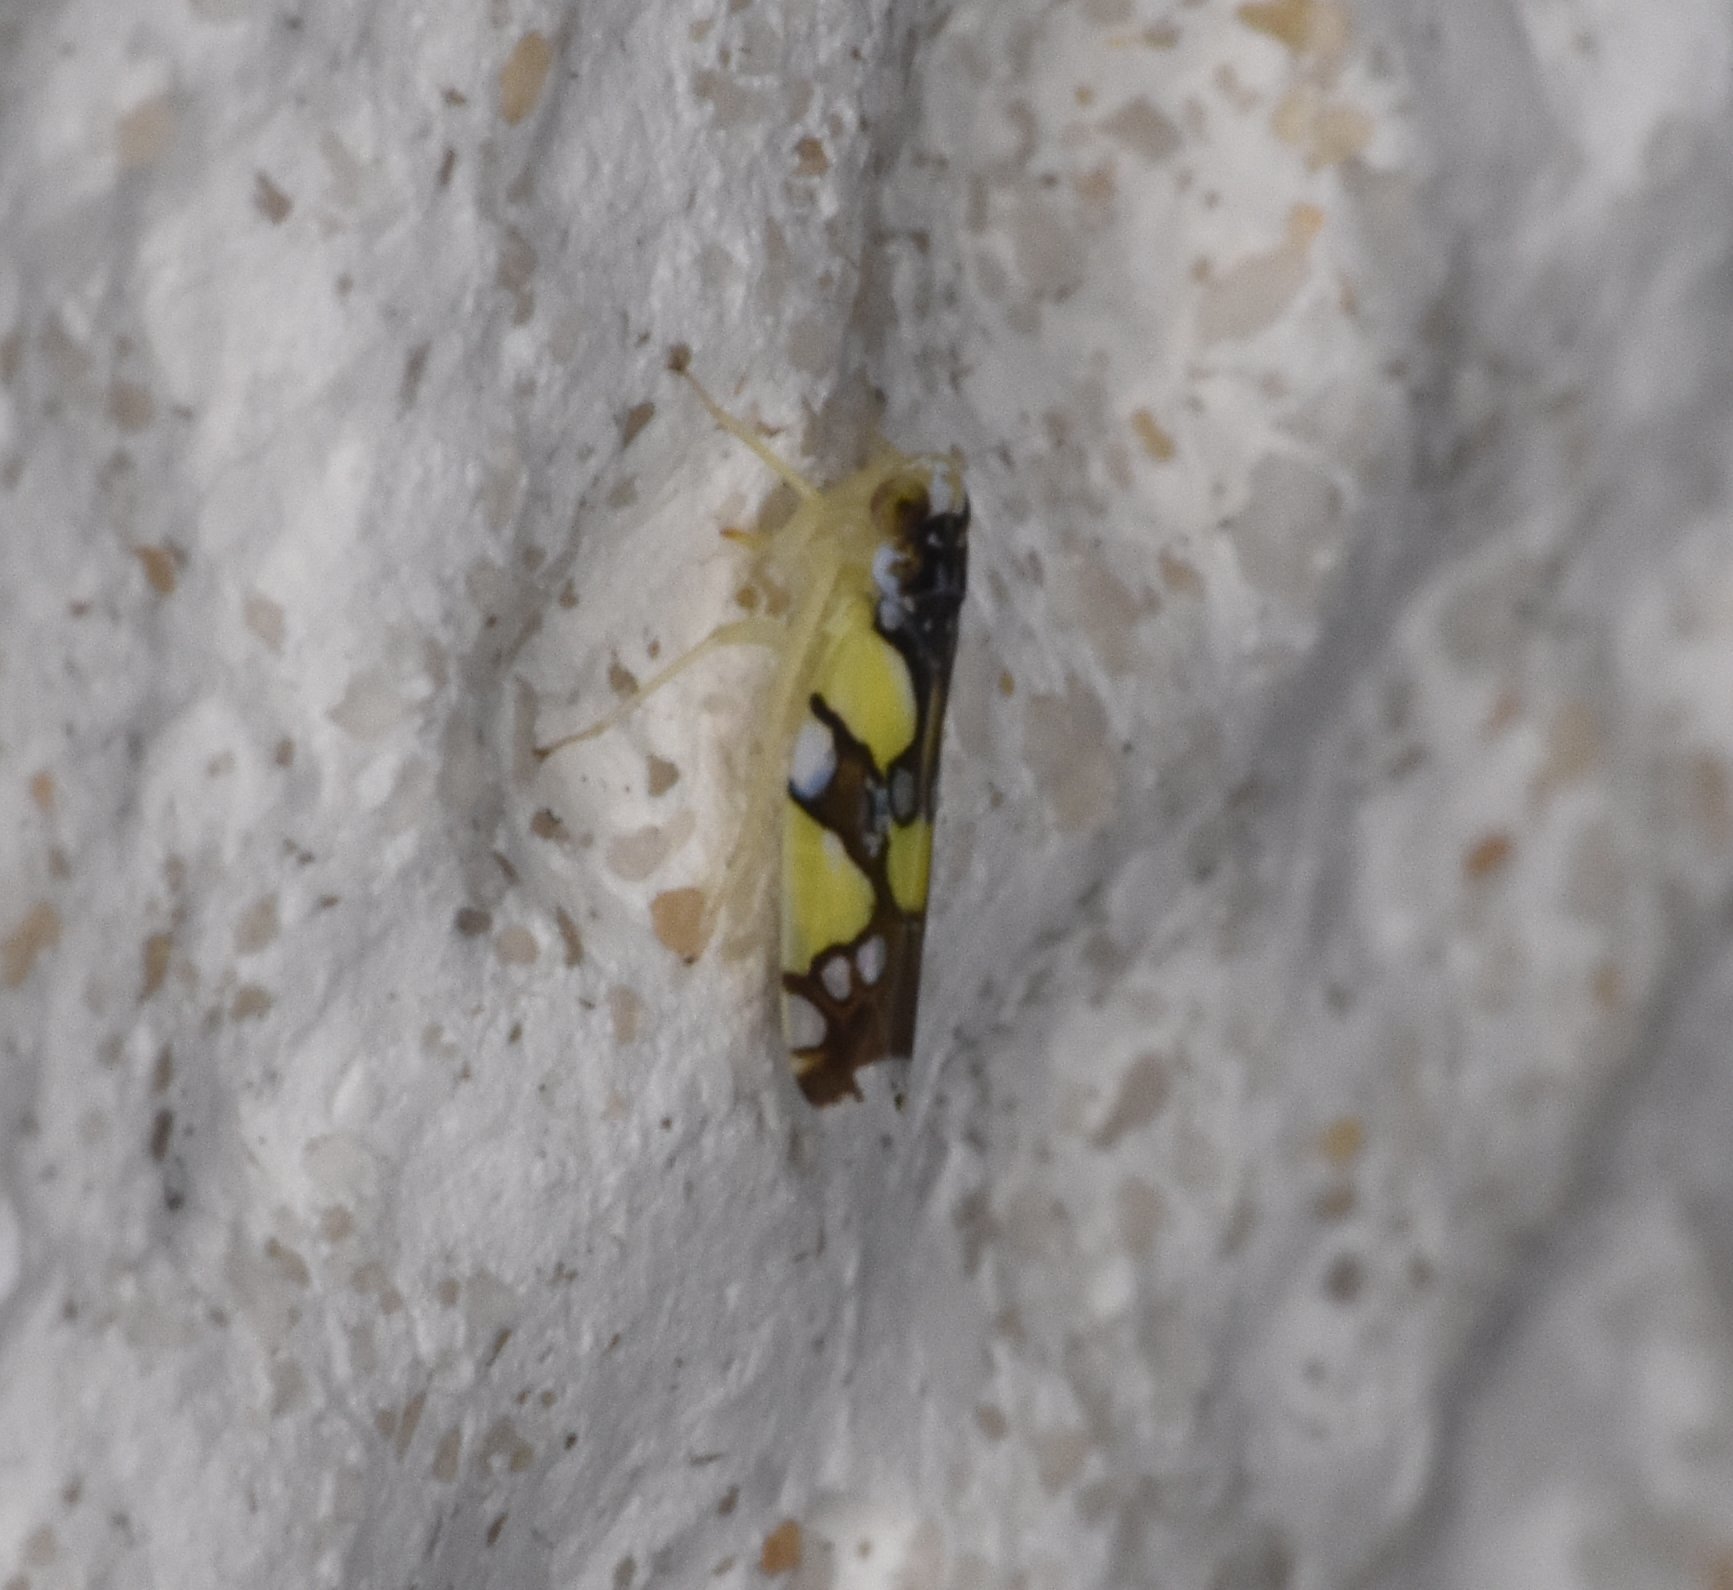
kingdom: Animalia
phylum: Arthropoda
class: Insecta
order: Hemiptera
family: Cicadellidae
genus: Protalebrella
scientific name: Protalebrella brasiliensis
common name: Brasilian leafhopper
